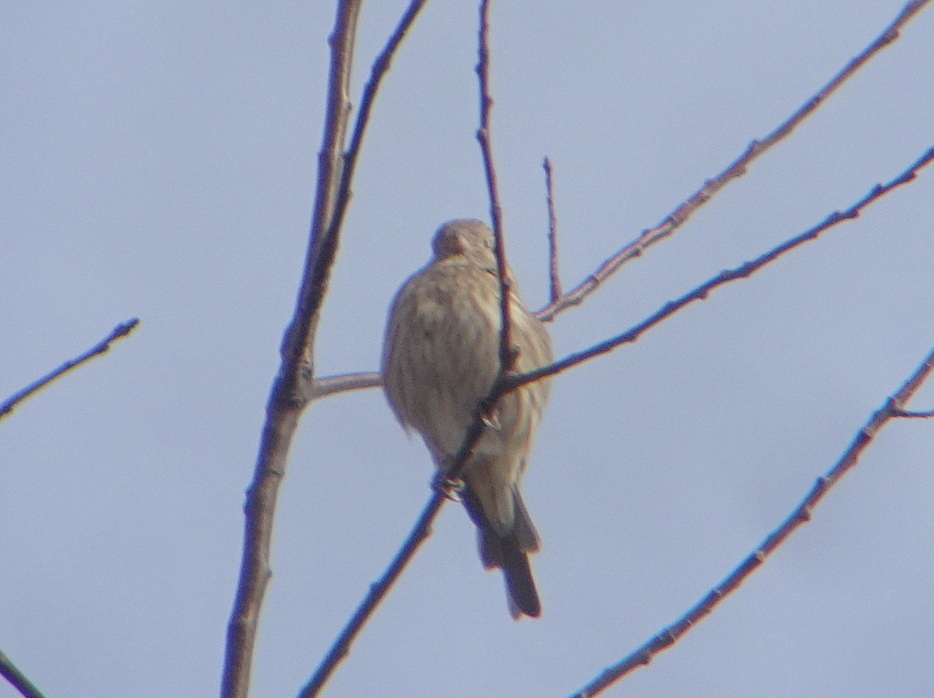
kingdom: Animalia
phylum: Chordata
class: Aves
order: Passeriformes
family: Fringillidae
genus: Haemorhous
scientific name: Haemorhous mexicanus
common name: House finch
